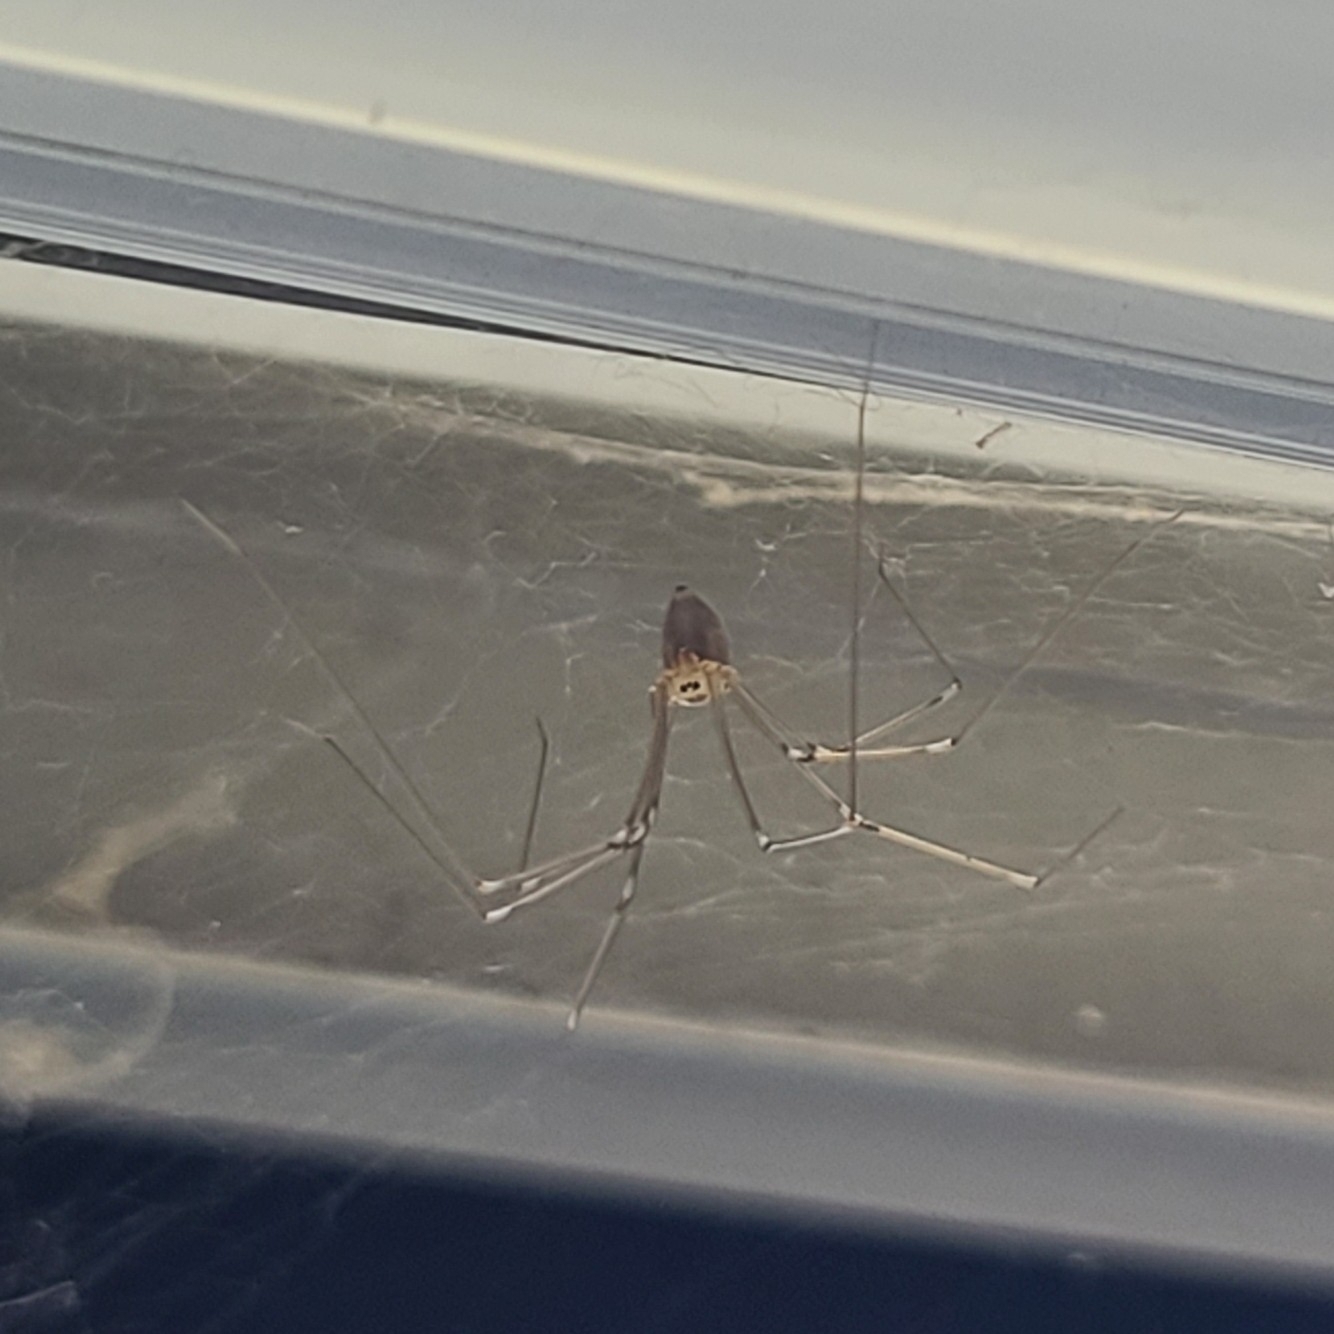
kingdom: Animalia
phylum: Arthropoda
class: Arachnida
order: Araneae
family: Pholcidae
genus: Pholcus
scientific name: Pholcus phalangioides
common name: Longbodied cellar spider
